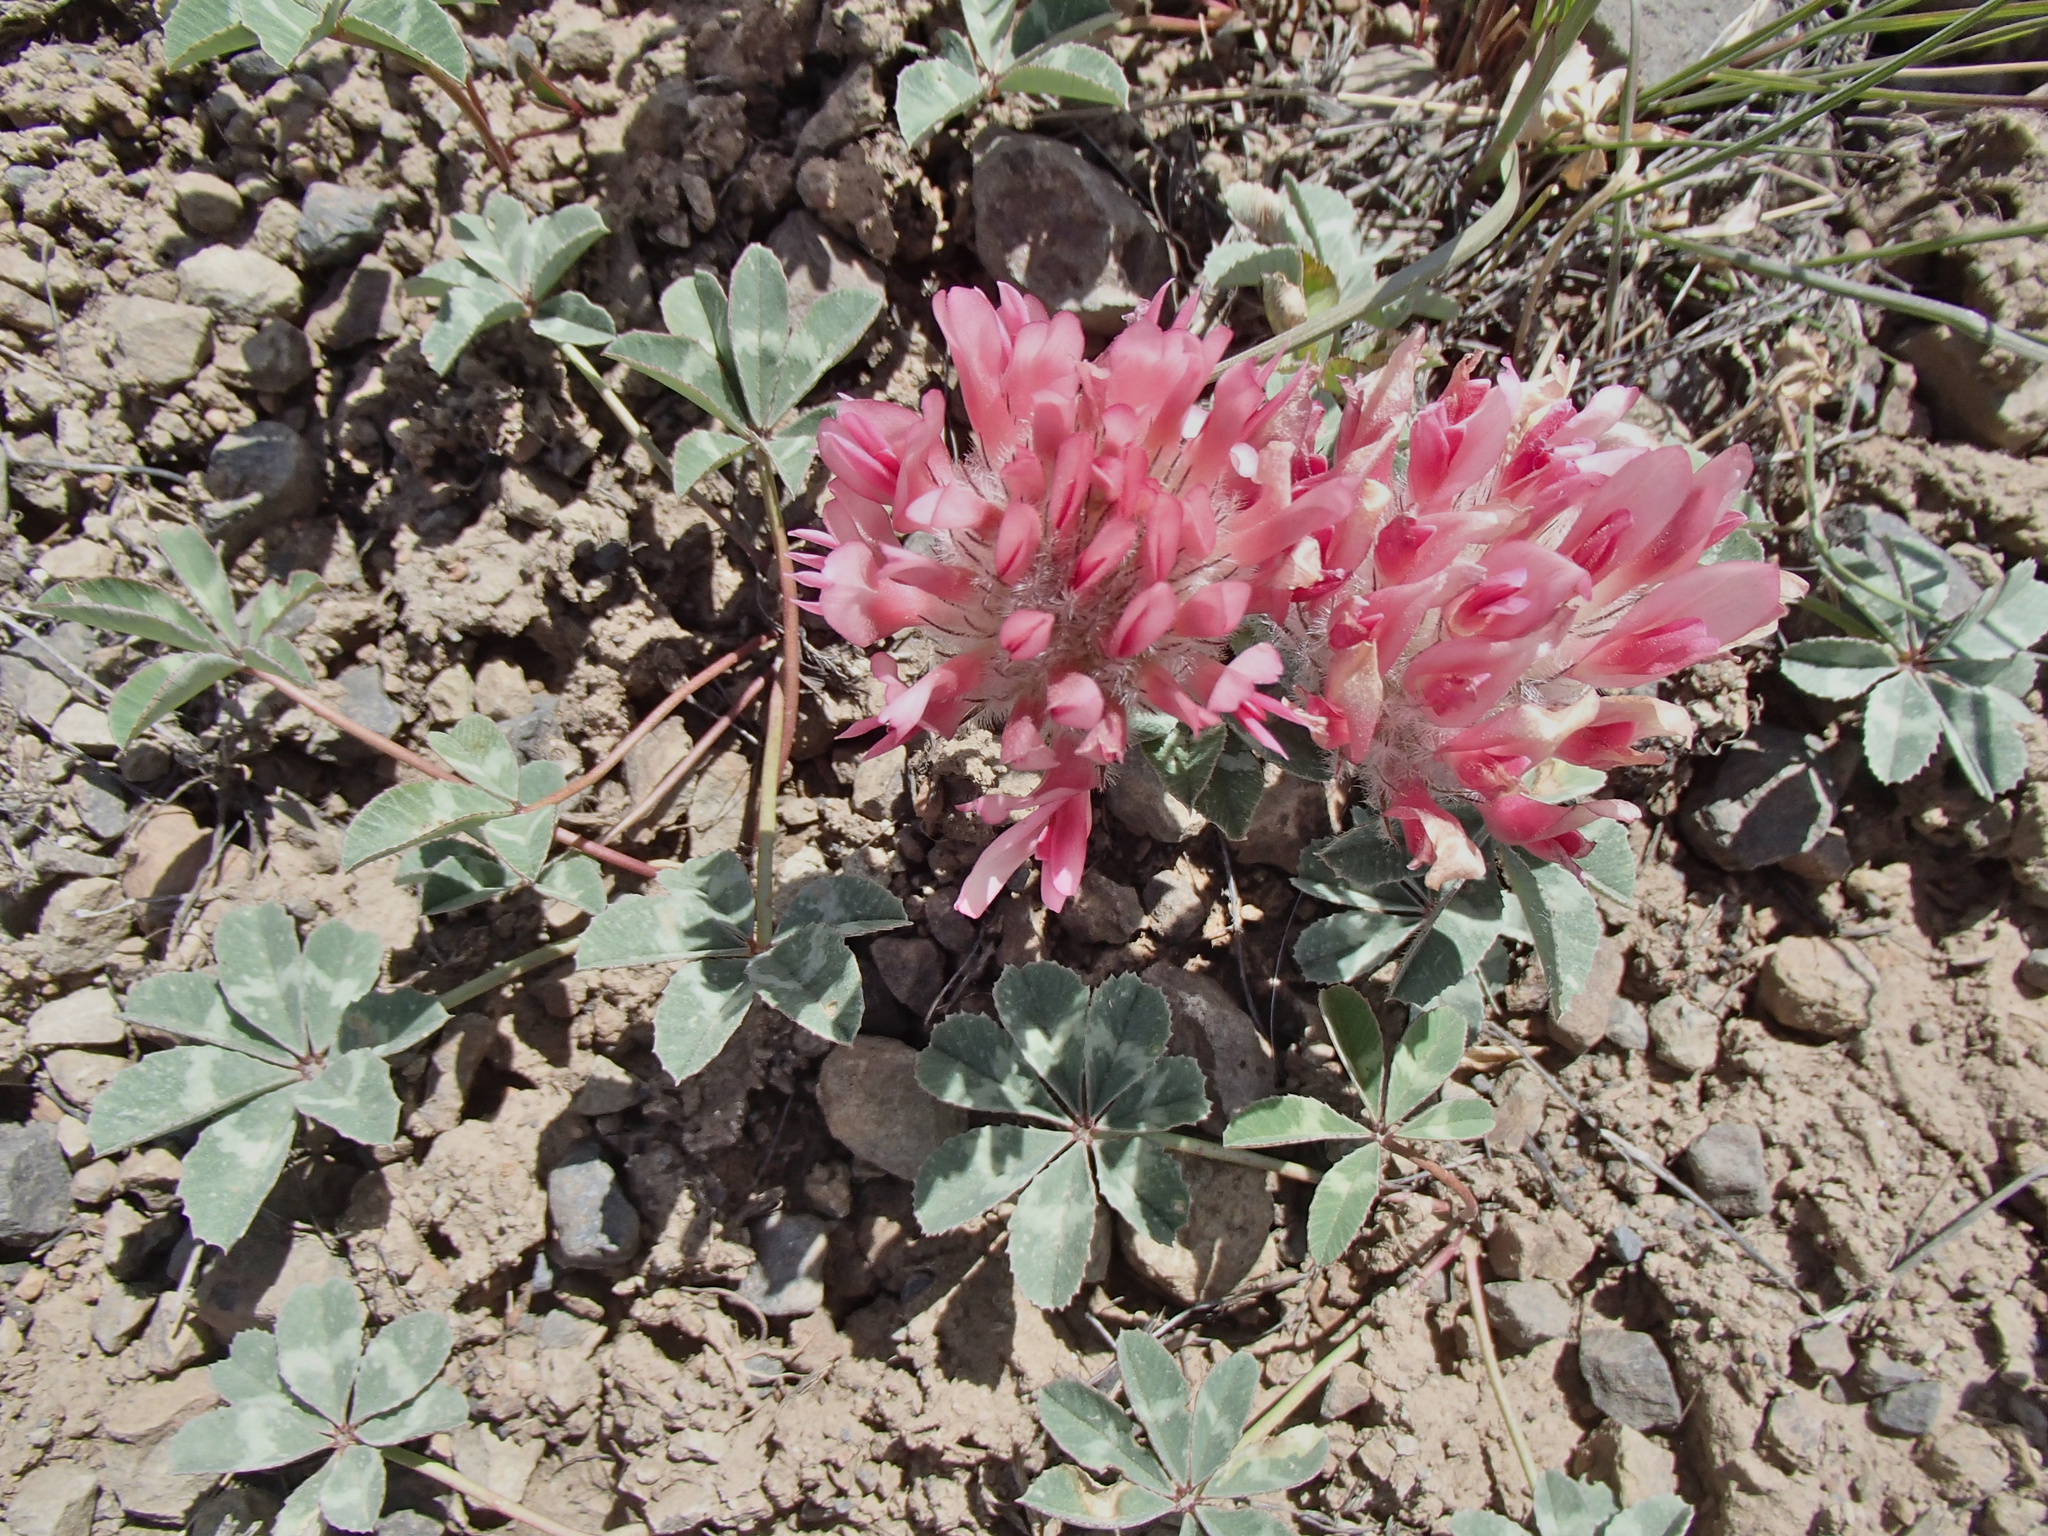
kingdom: Plantae
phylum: Tracheophyta
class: Magnoliopsida
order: Fabales
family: Fabaceae
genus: Trifolium
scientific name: Trifolium macrocephalum
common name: Large-head clover
